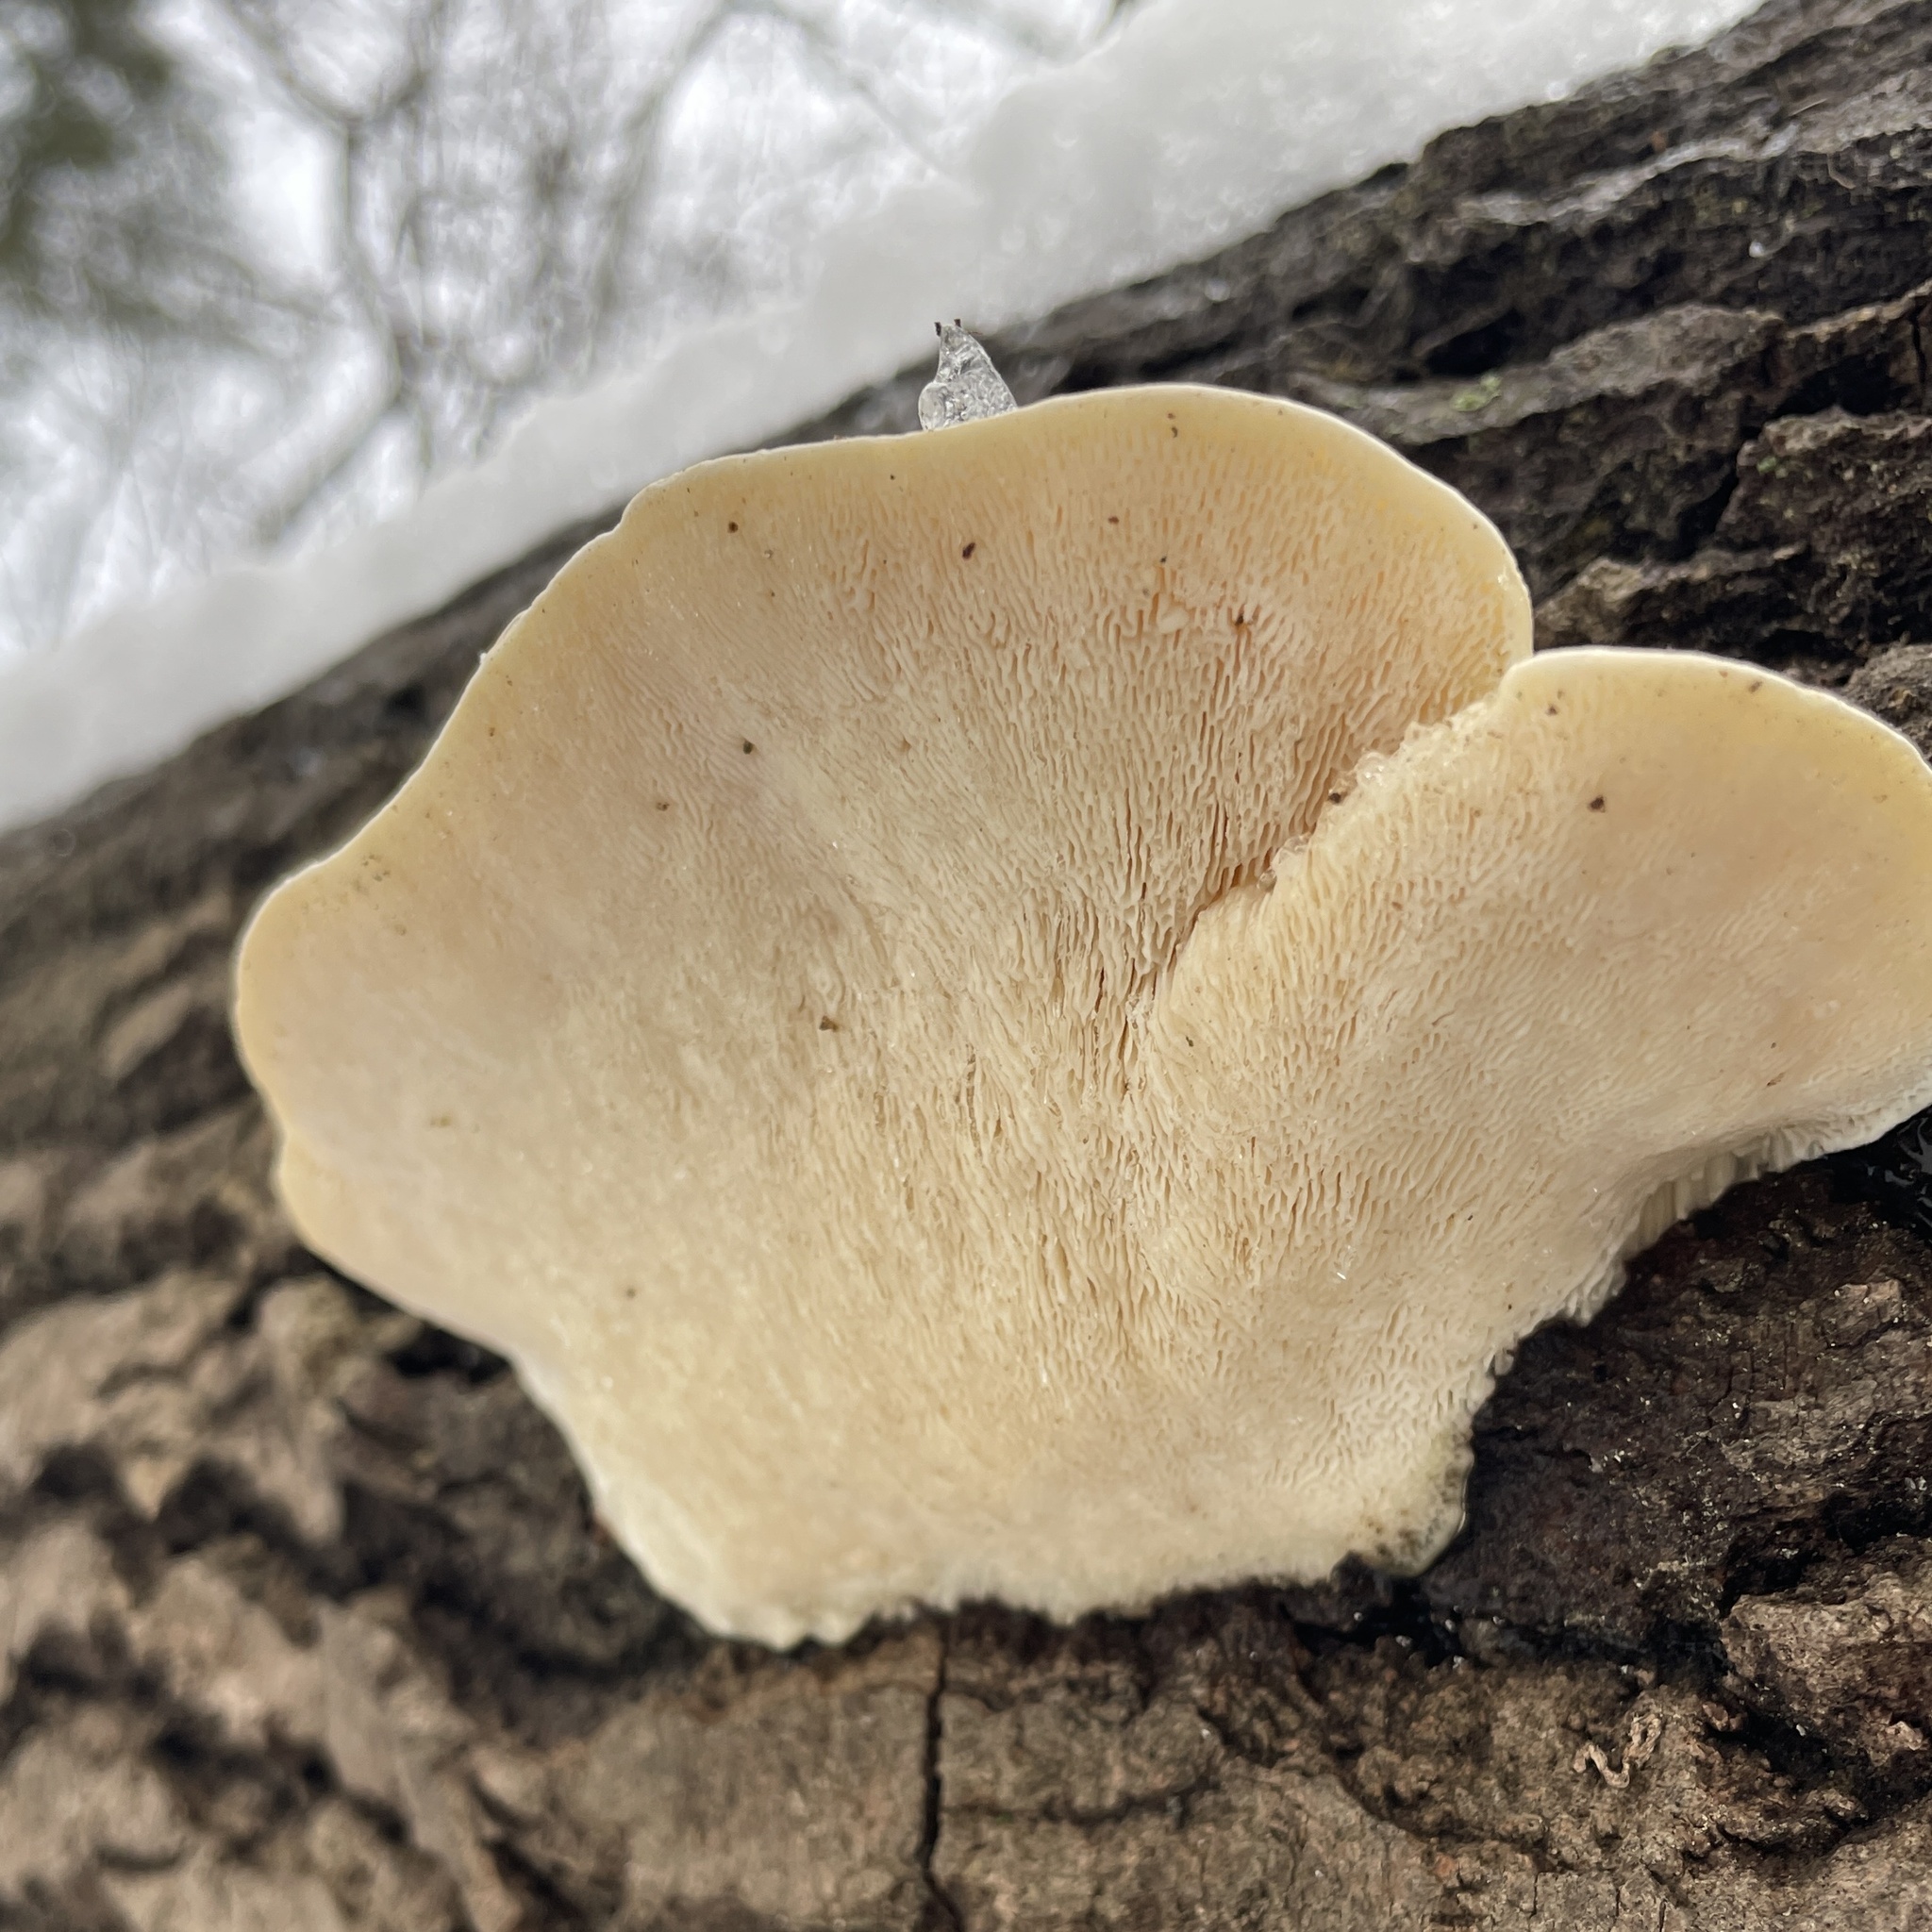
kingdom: Fungi
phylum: Basidiomycota
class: Agaricomycetes
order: Polyporales
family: Polyporaceae
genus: Trametes
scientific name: Trametes gibbosa
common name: Lumpy bracket
